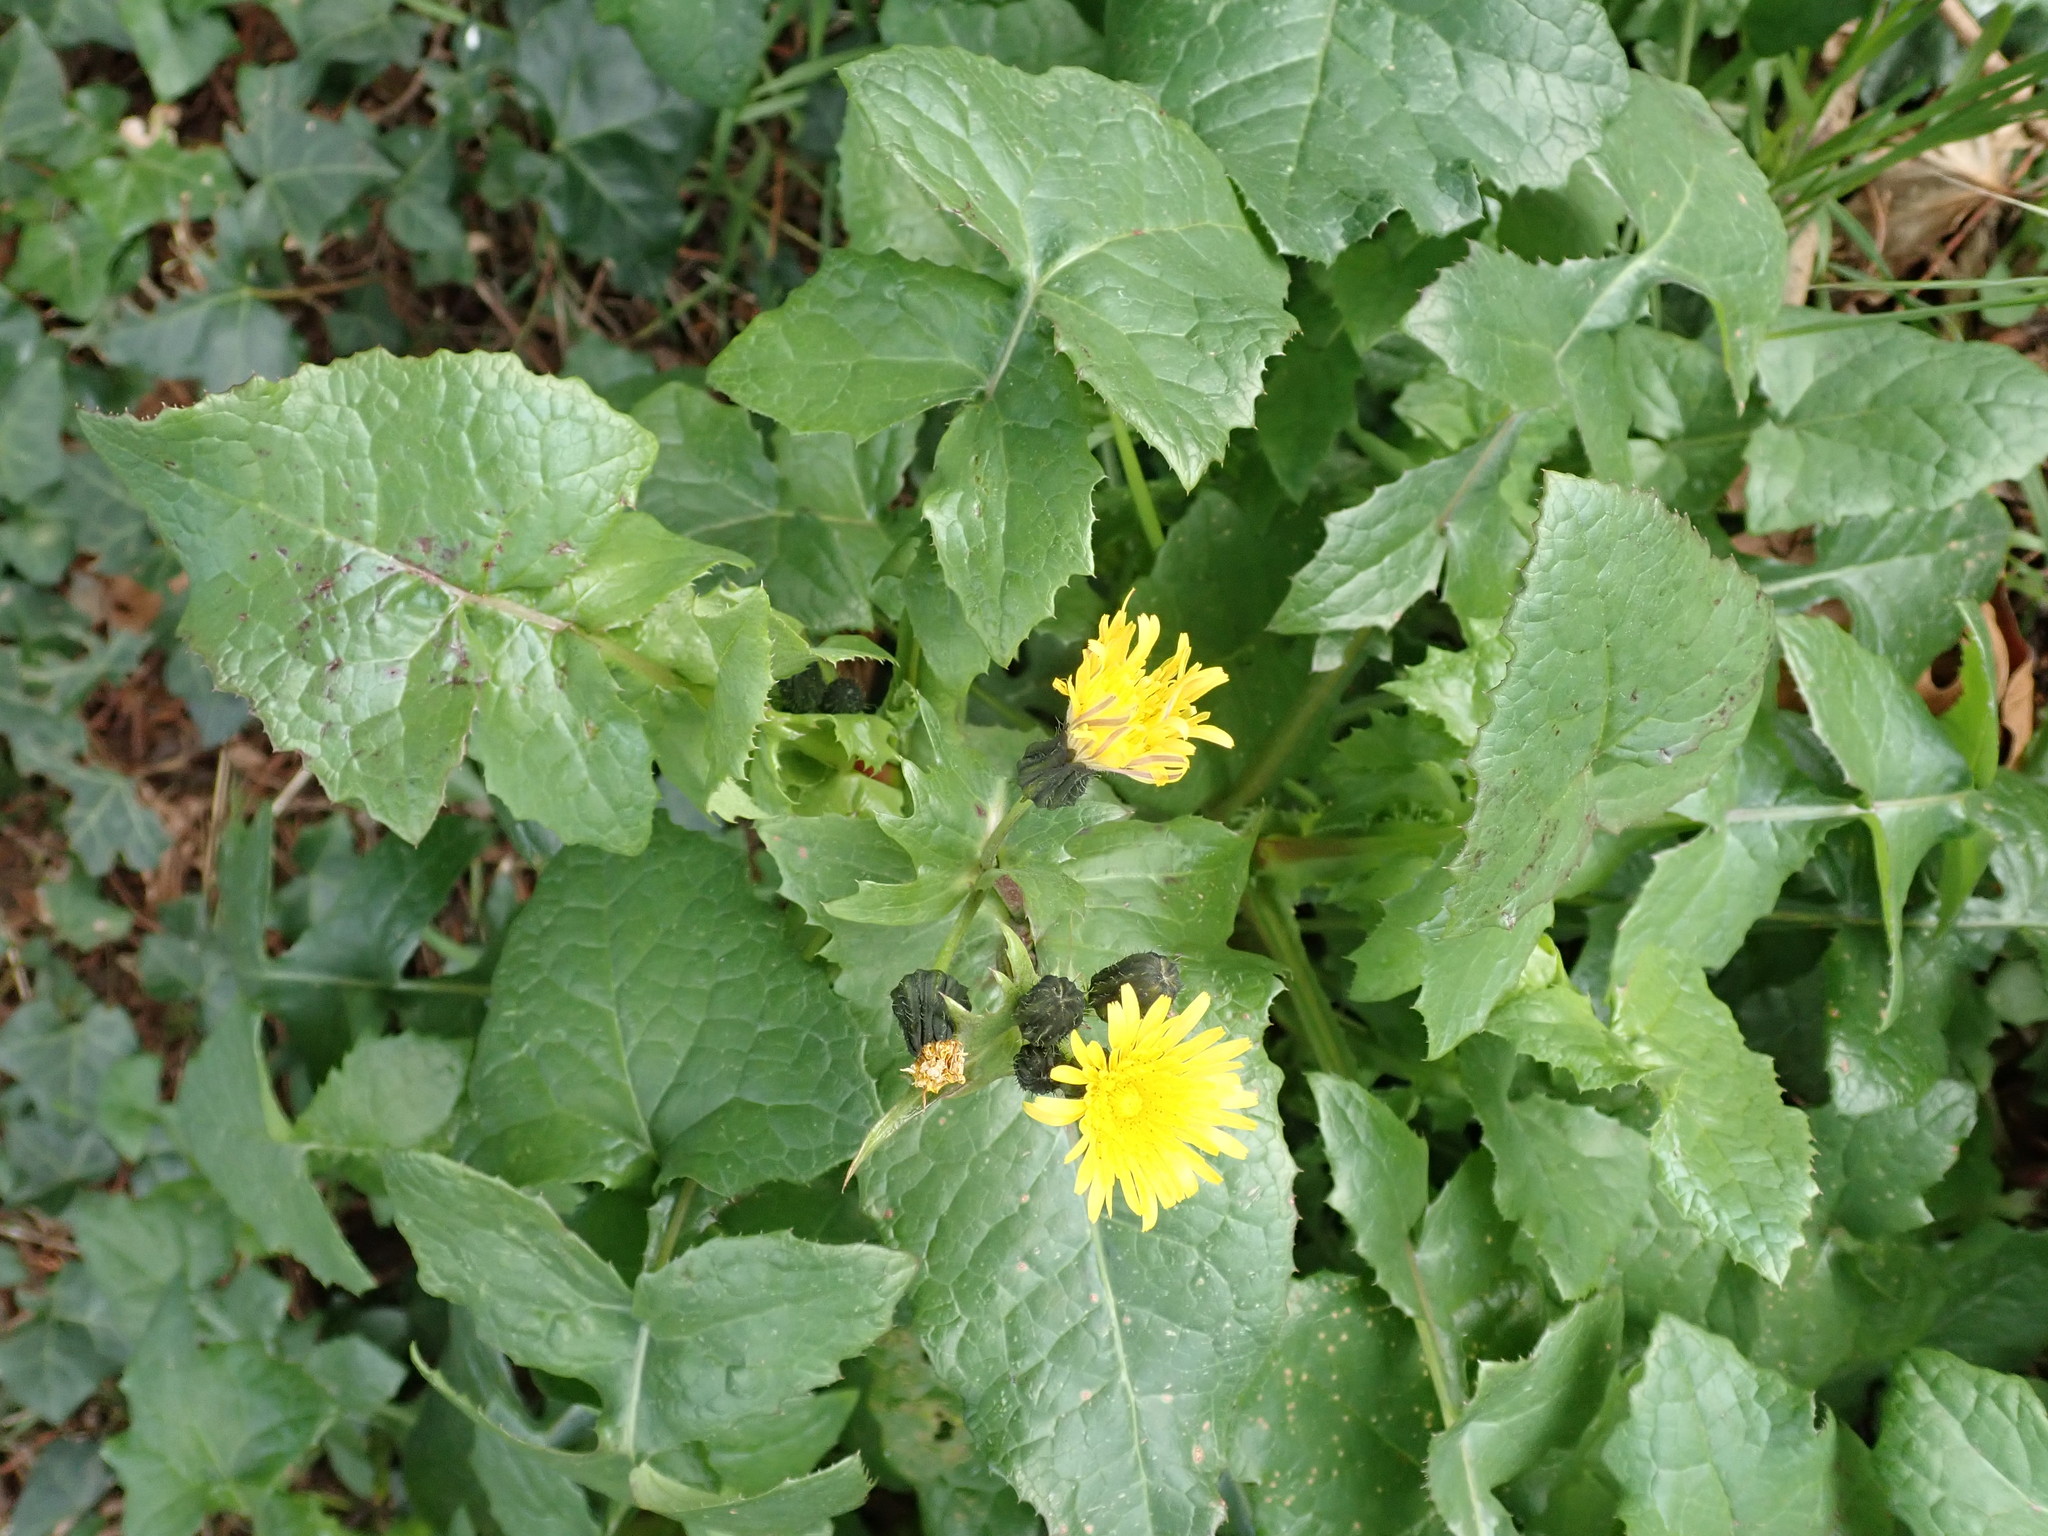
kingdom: Plantae
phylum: Tracheophyta
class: Magnoliopsida
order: Asterales
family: Asteraceae
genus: Sonchus
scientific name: Sonchus oleraceus
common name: Common sowthistle
